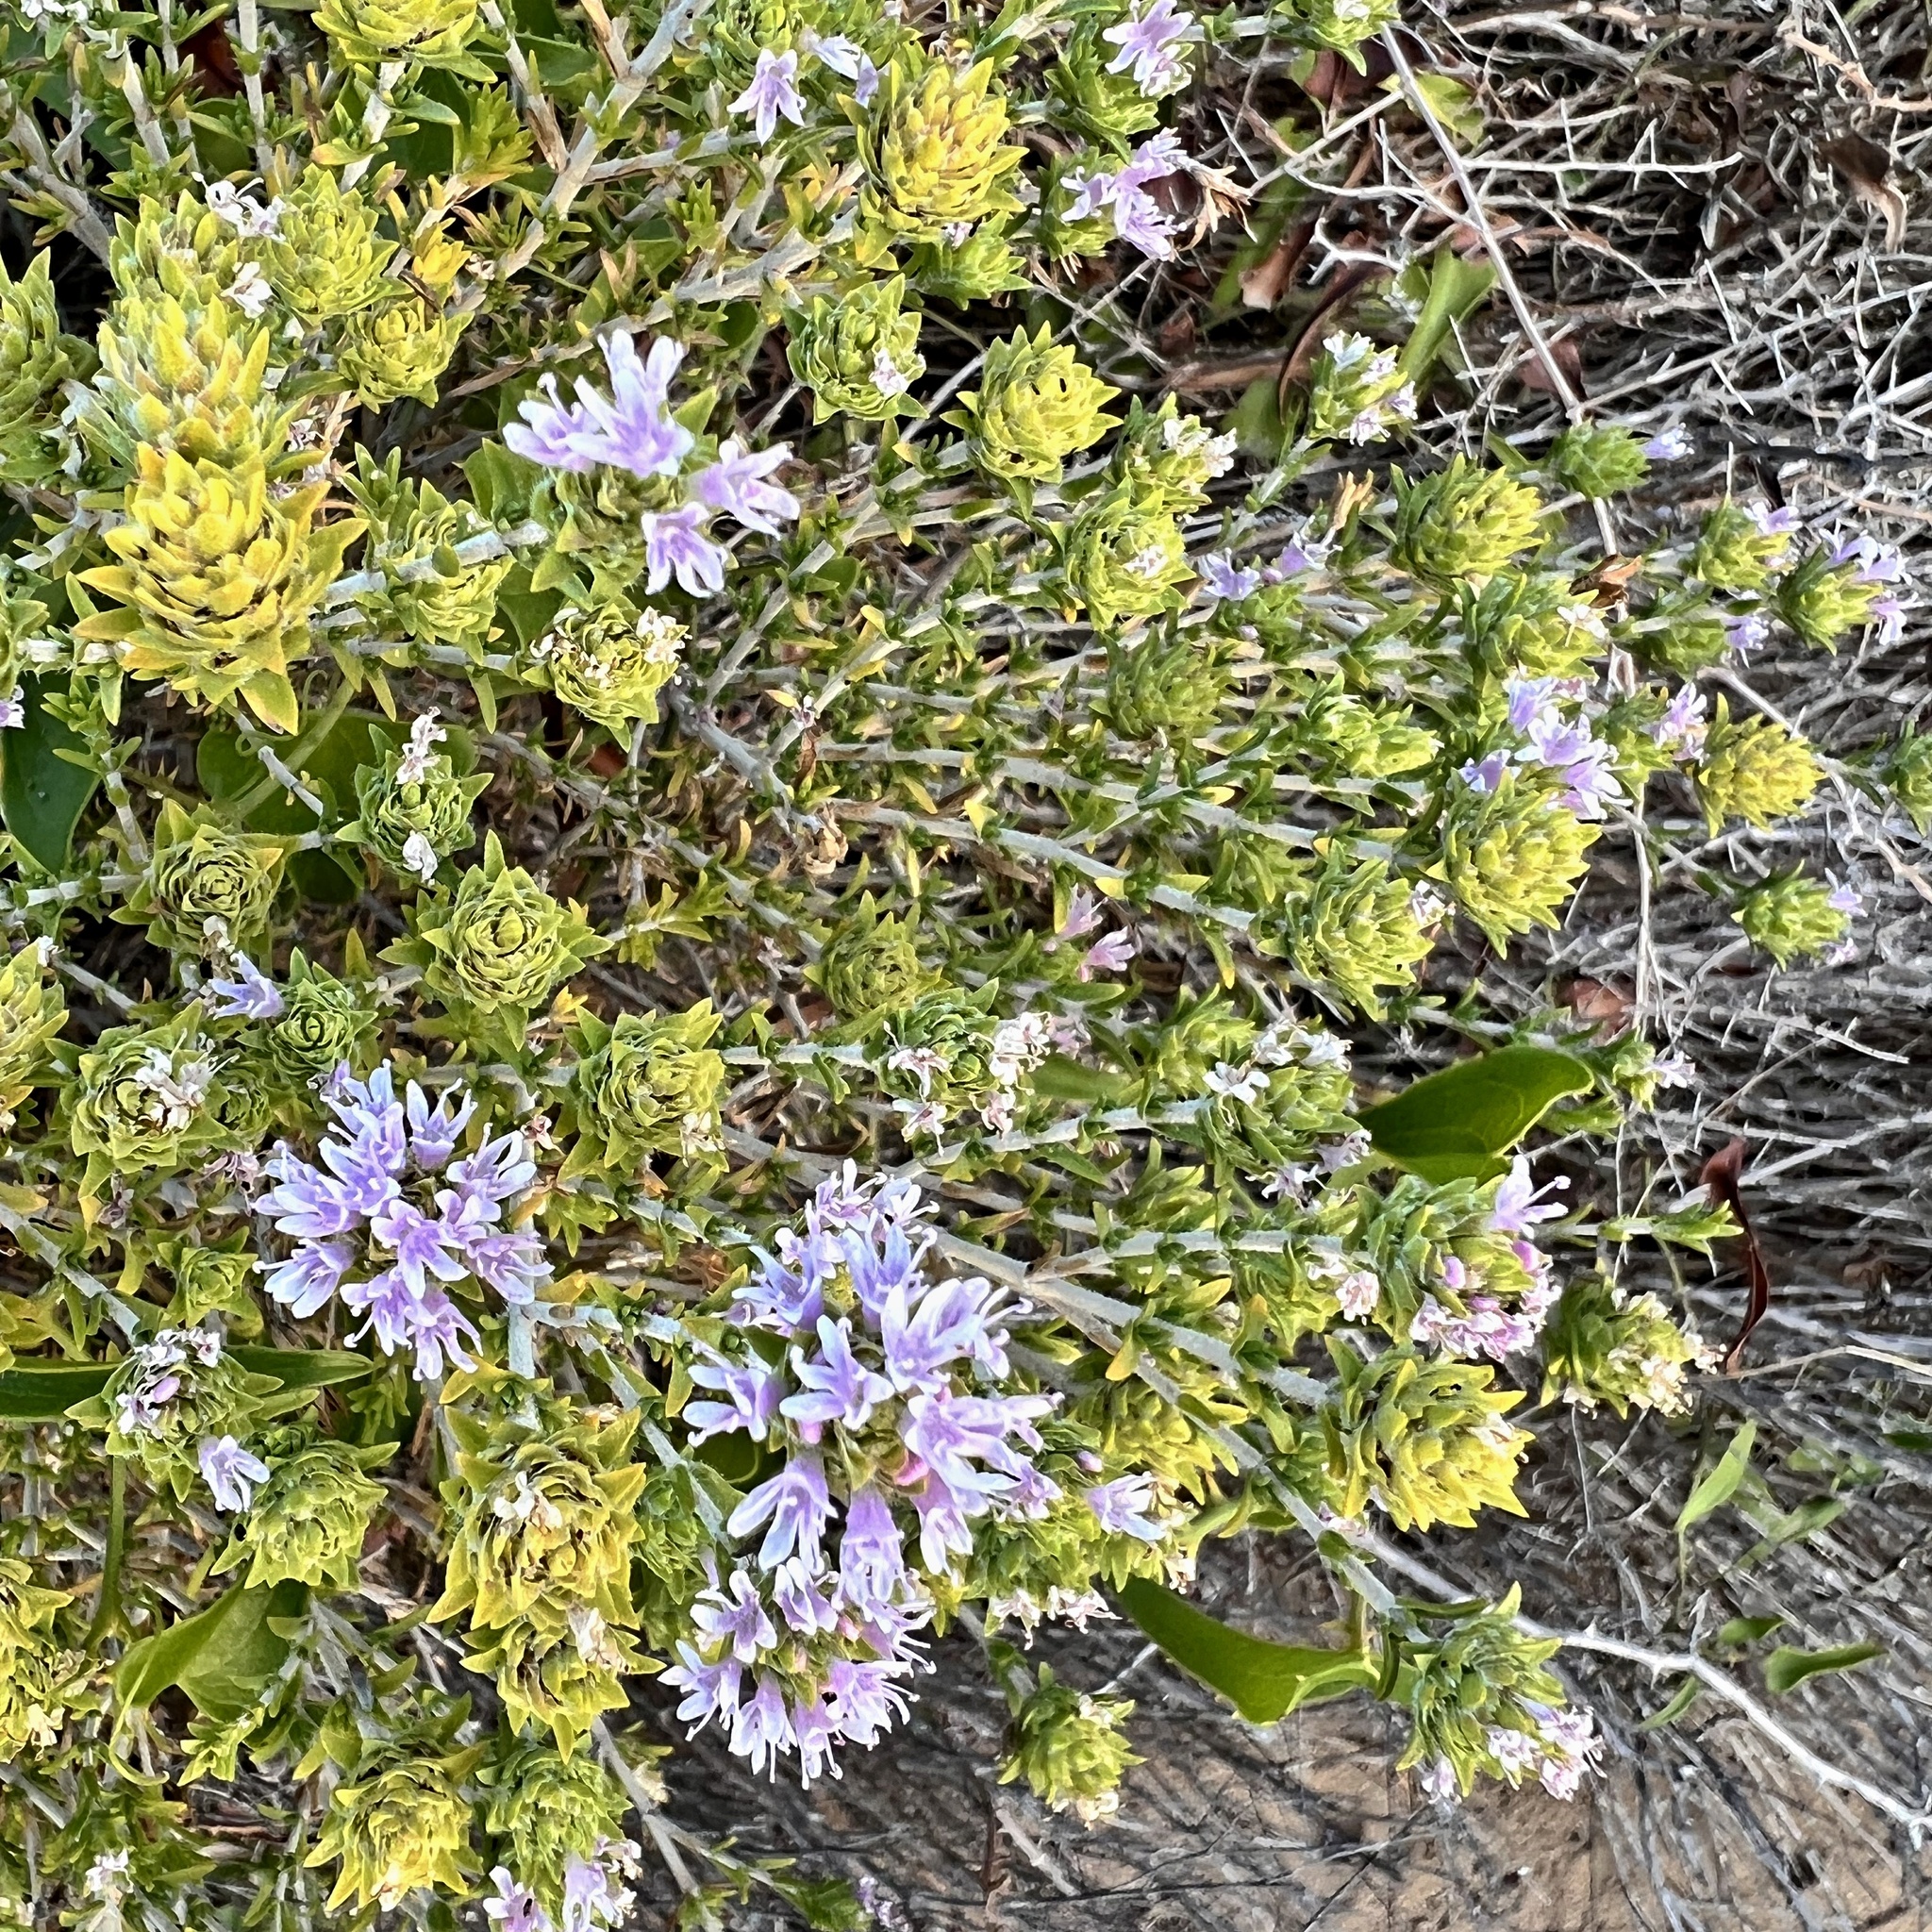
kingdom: Plantae
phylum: Tracheophyta
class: Magnoliopsida
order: Lamiales
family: Lamiaceae
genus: Thymbra
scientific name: Thymbra capitata
